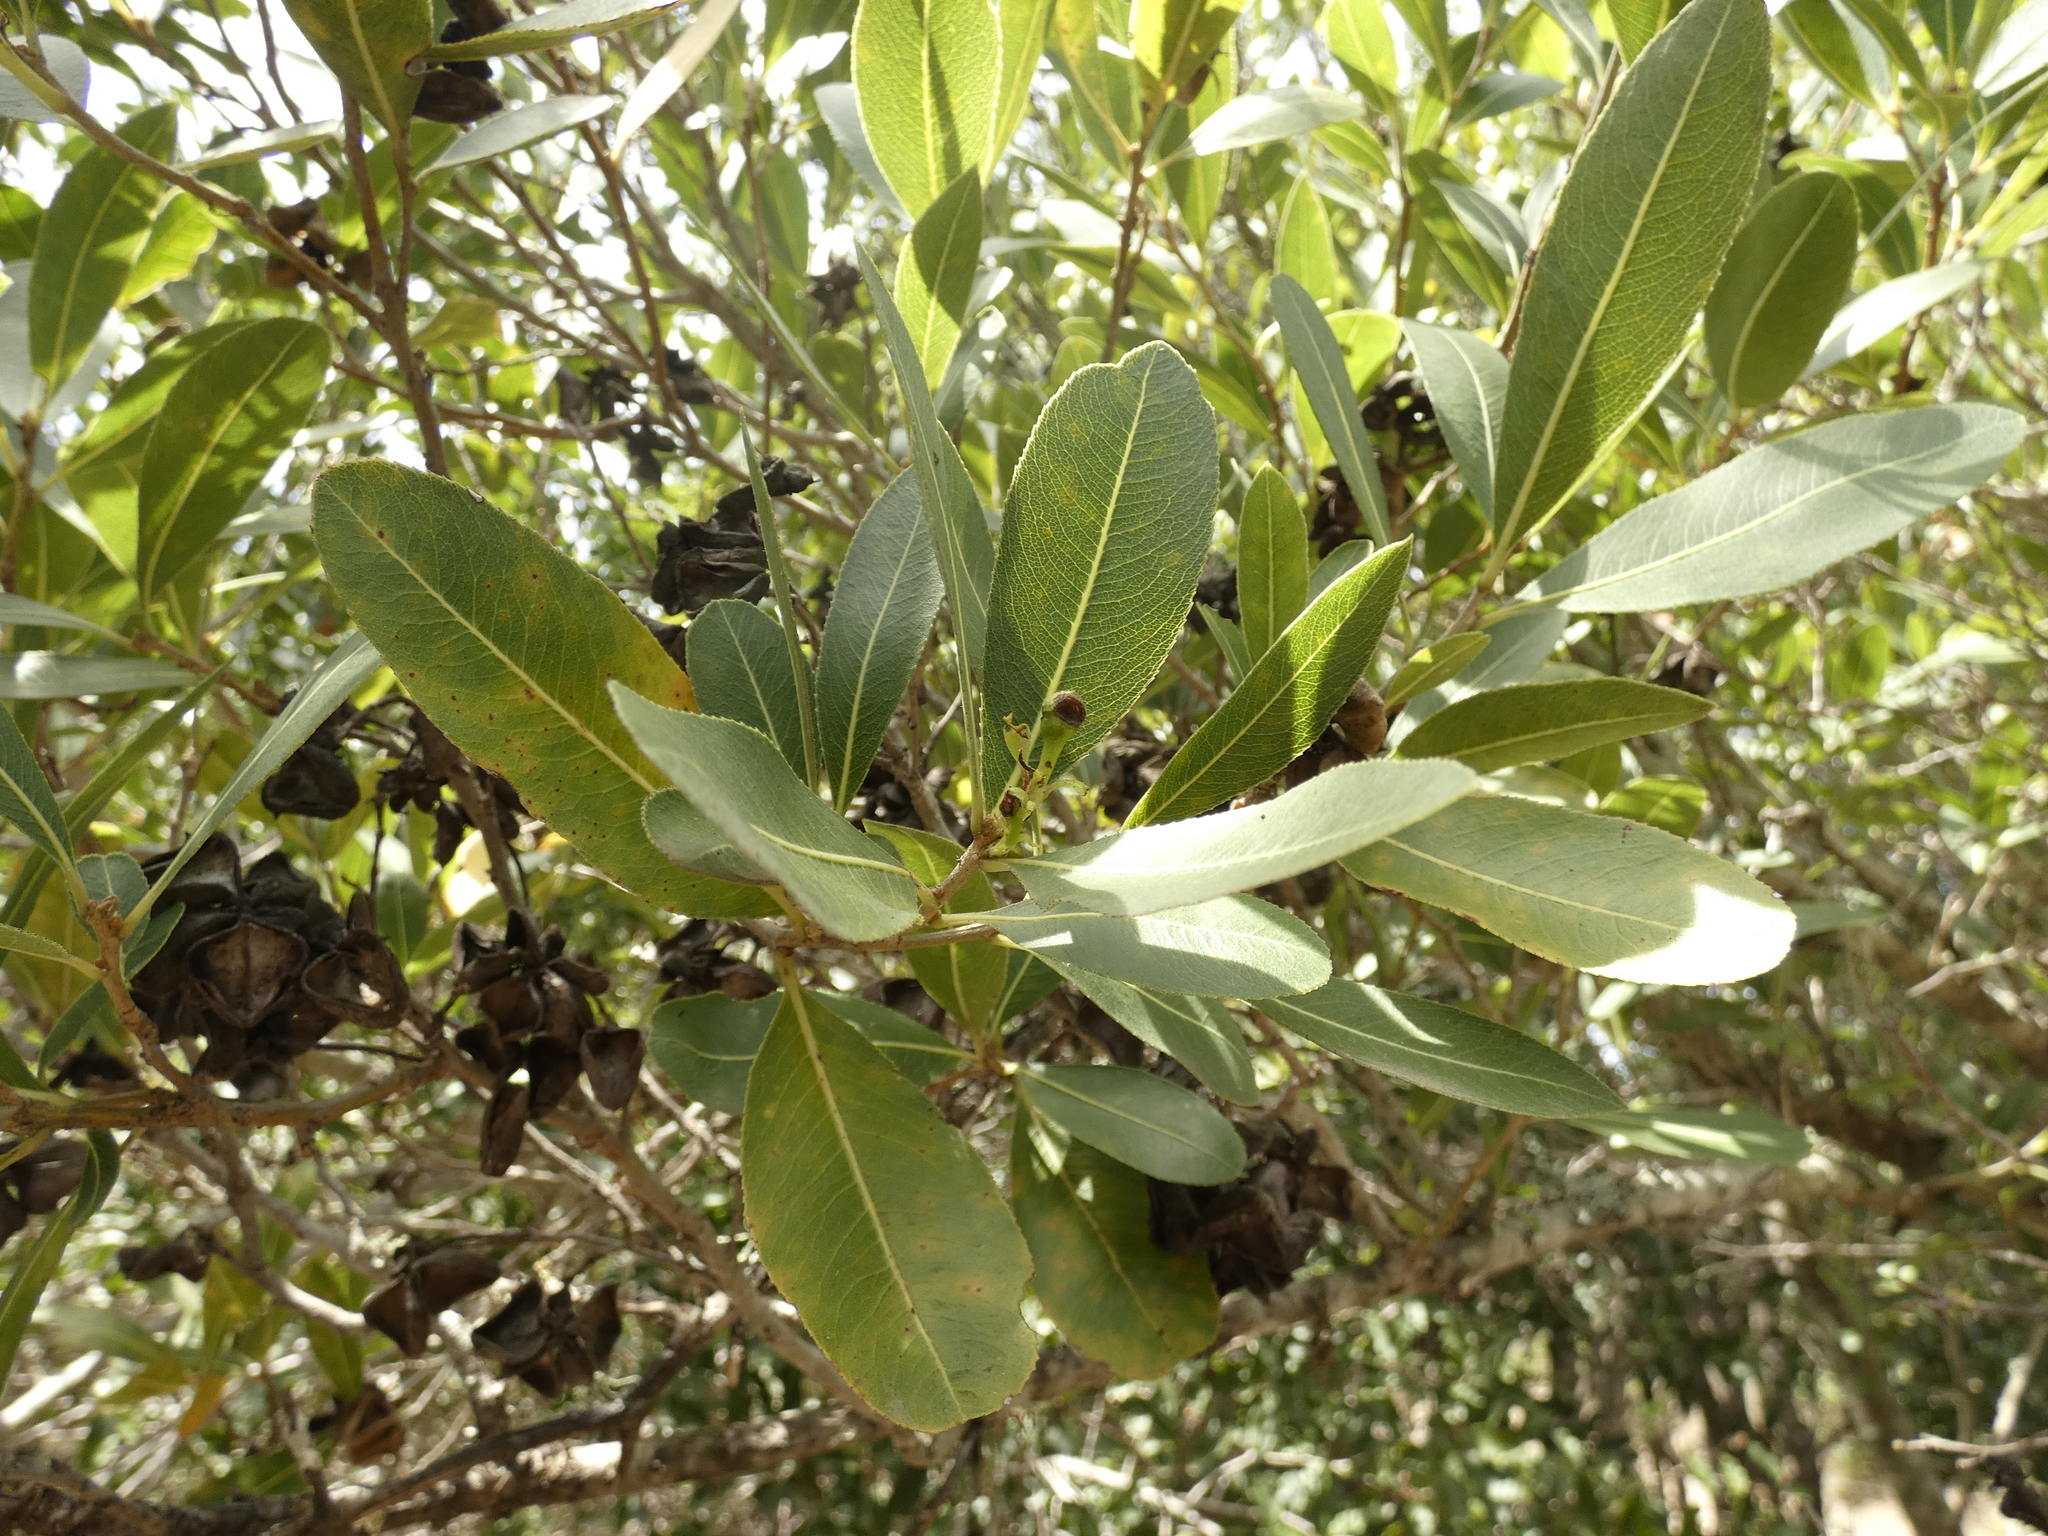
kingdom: Plantae
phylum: Tracheophyta
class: Magnoliopsida
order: Rosales
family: Rosaceae
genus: Kageneckia
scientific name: Kageneckia oblonga
